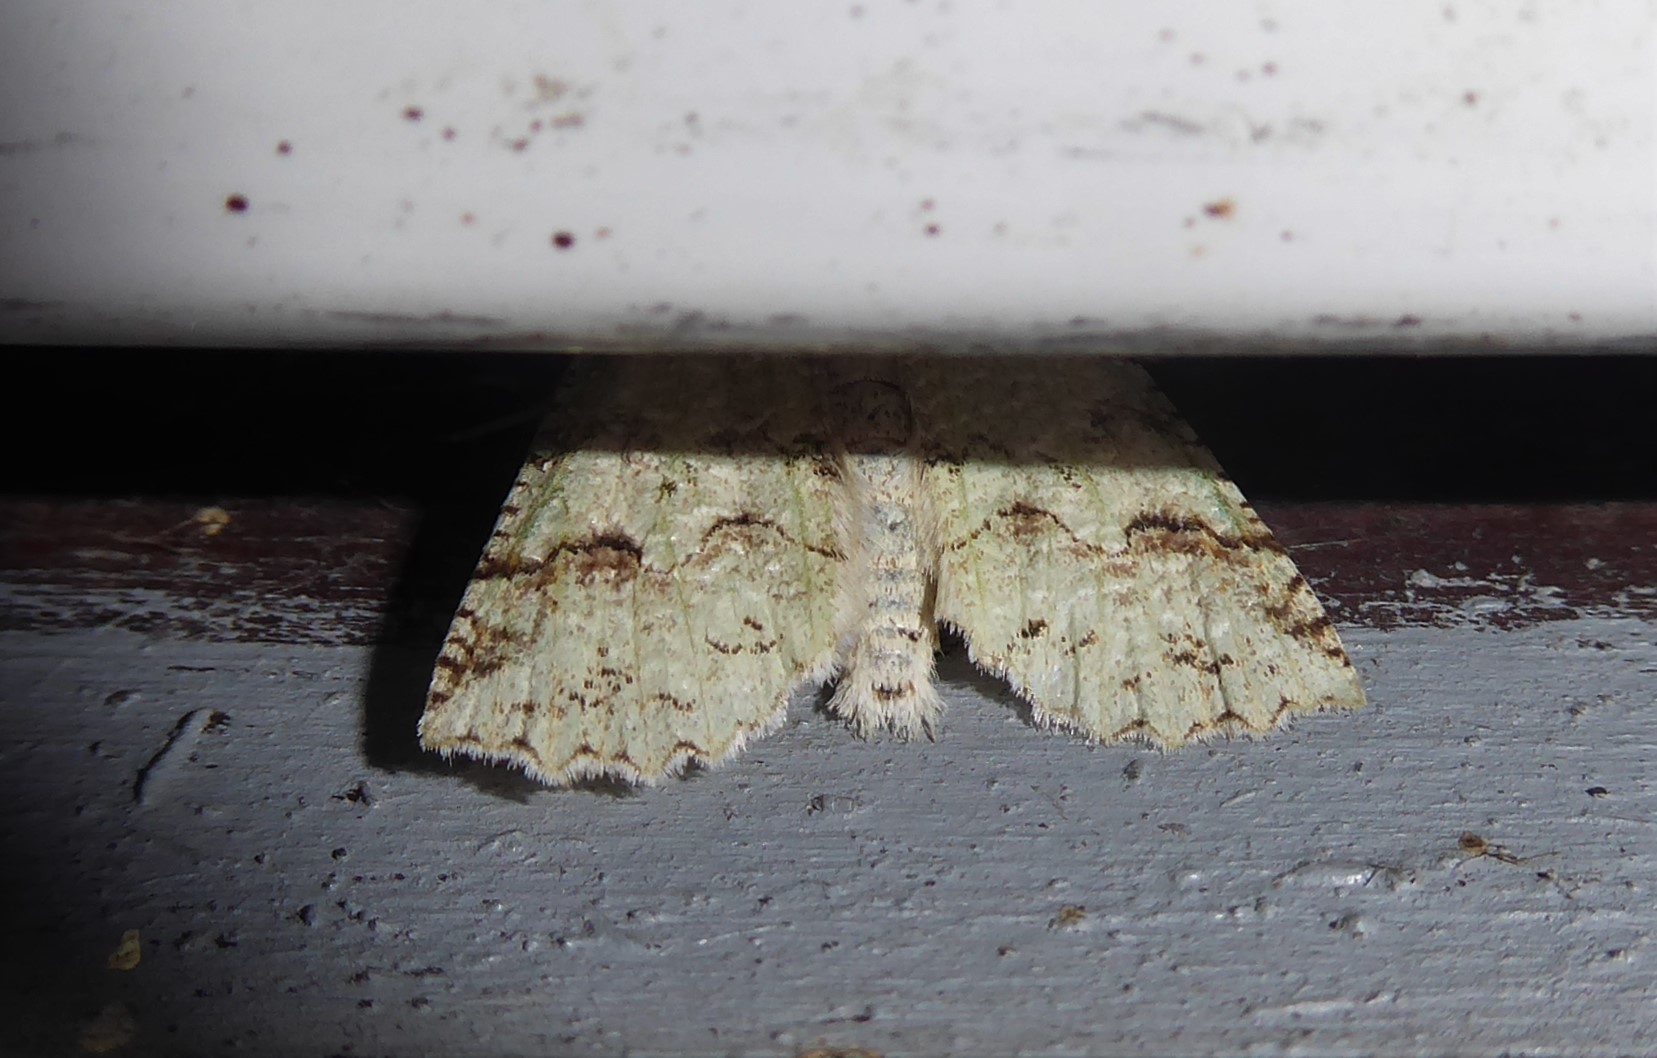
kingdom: Animalia
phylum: Arthropoda
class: Insecta
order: Lepidoptera
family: Geometridae
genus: Declana
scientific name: Declana floccosa
